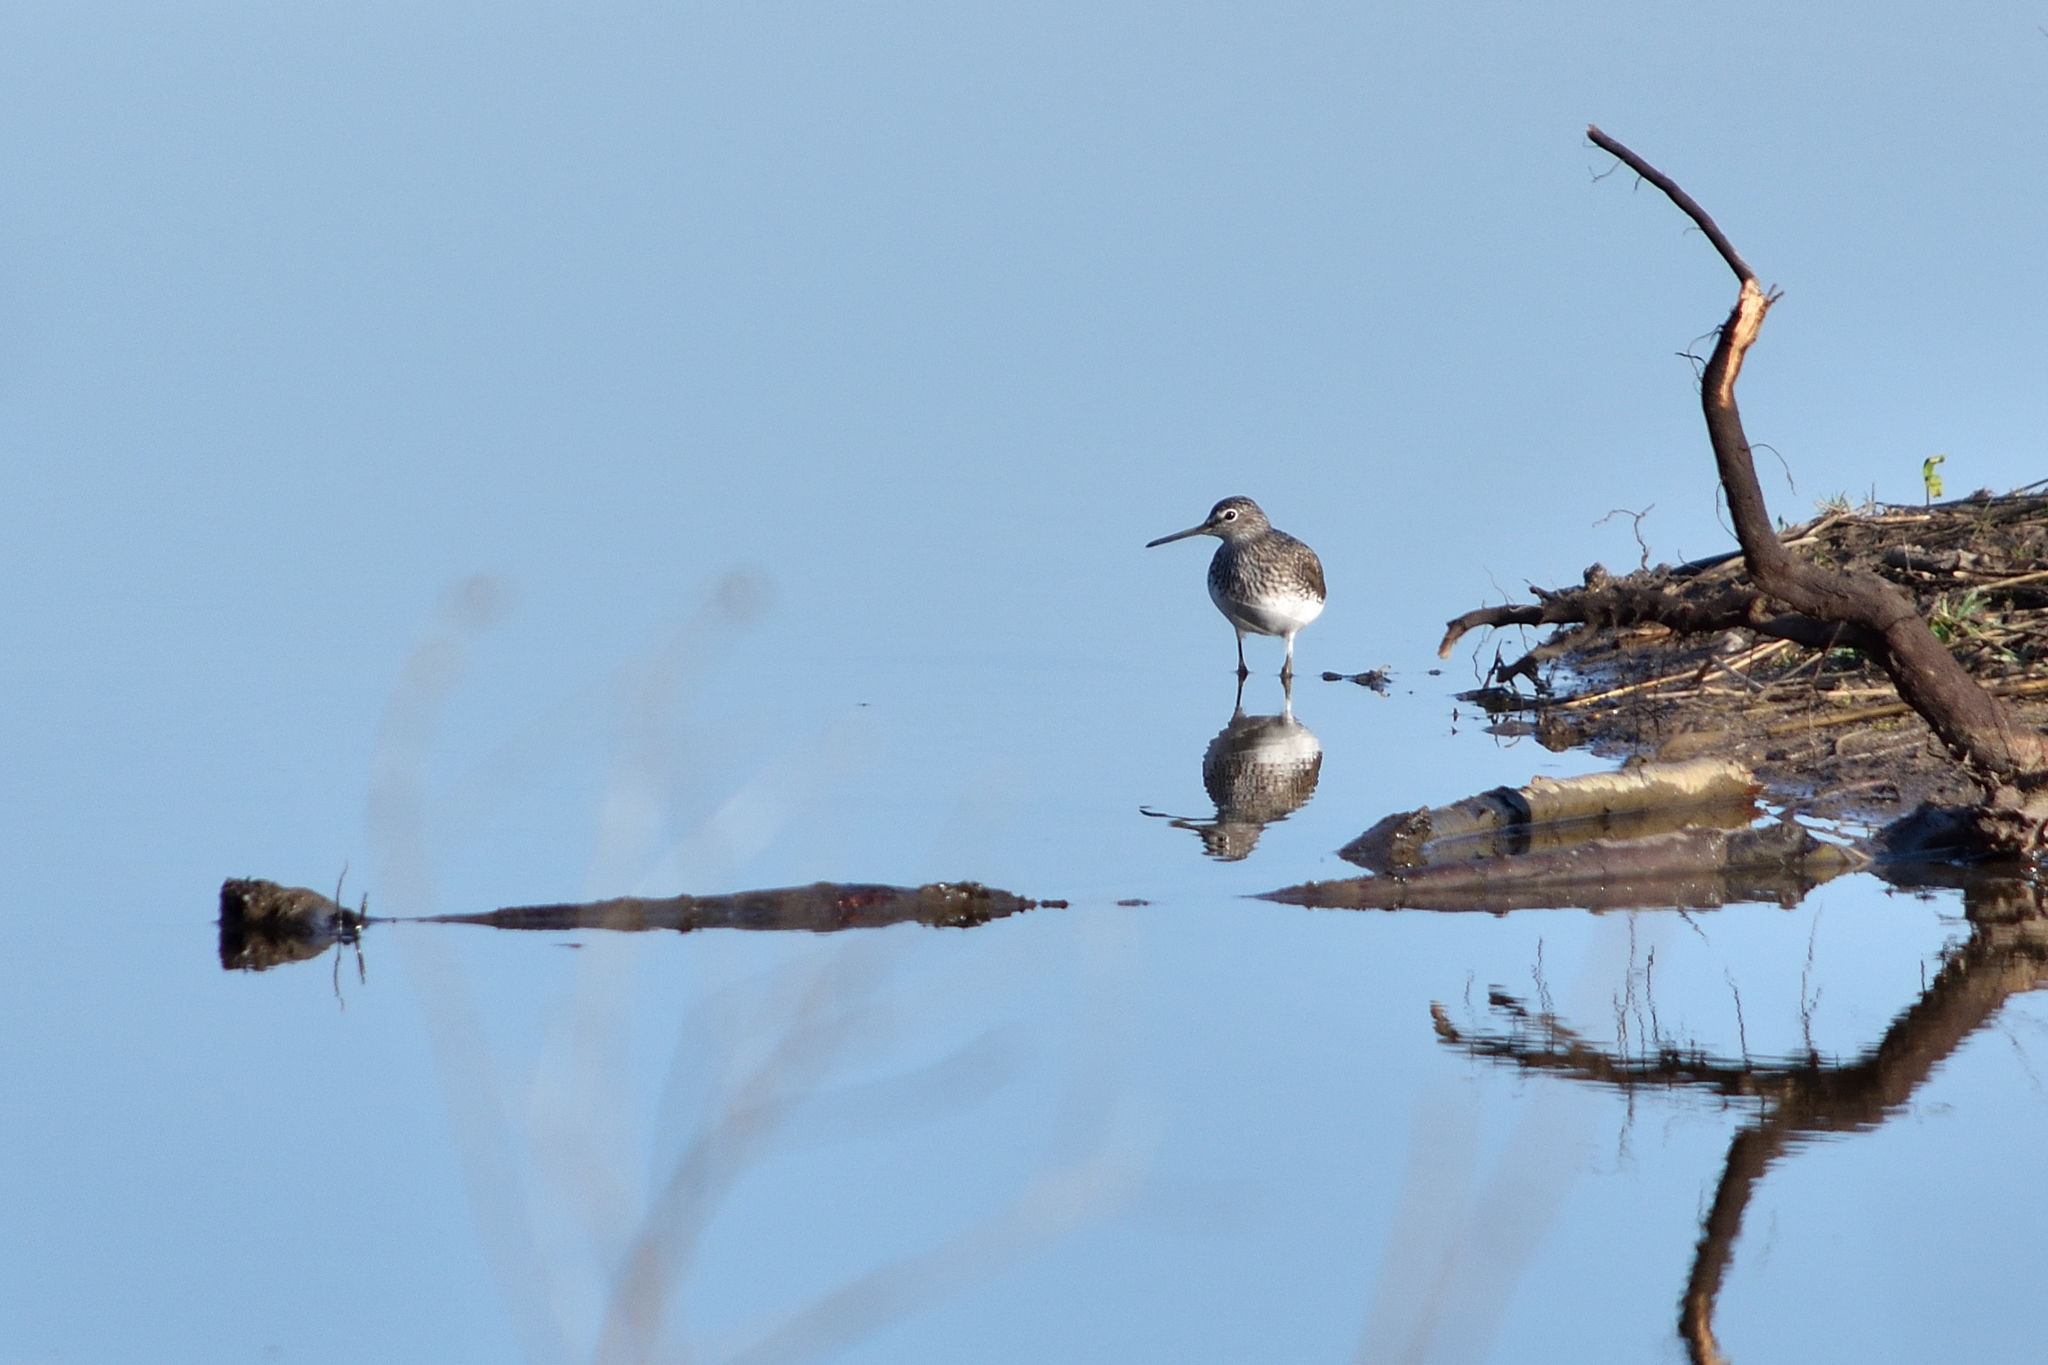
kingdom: Animalia
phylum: Chordata
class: Aves
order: Charadriiformes
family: Scolopacidae
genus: Tringa
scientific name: Tringa ochropus
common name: Green sandpiper
